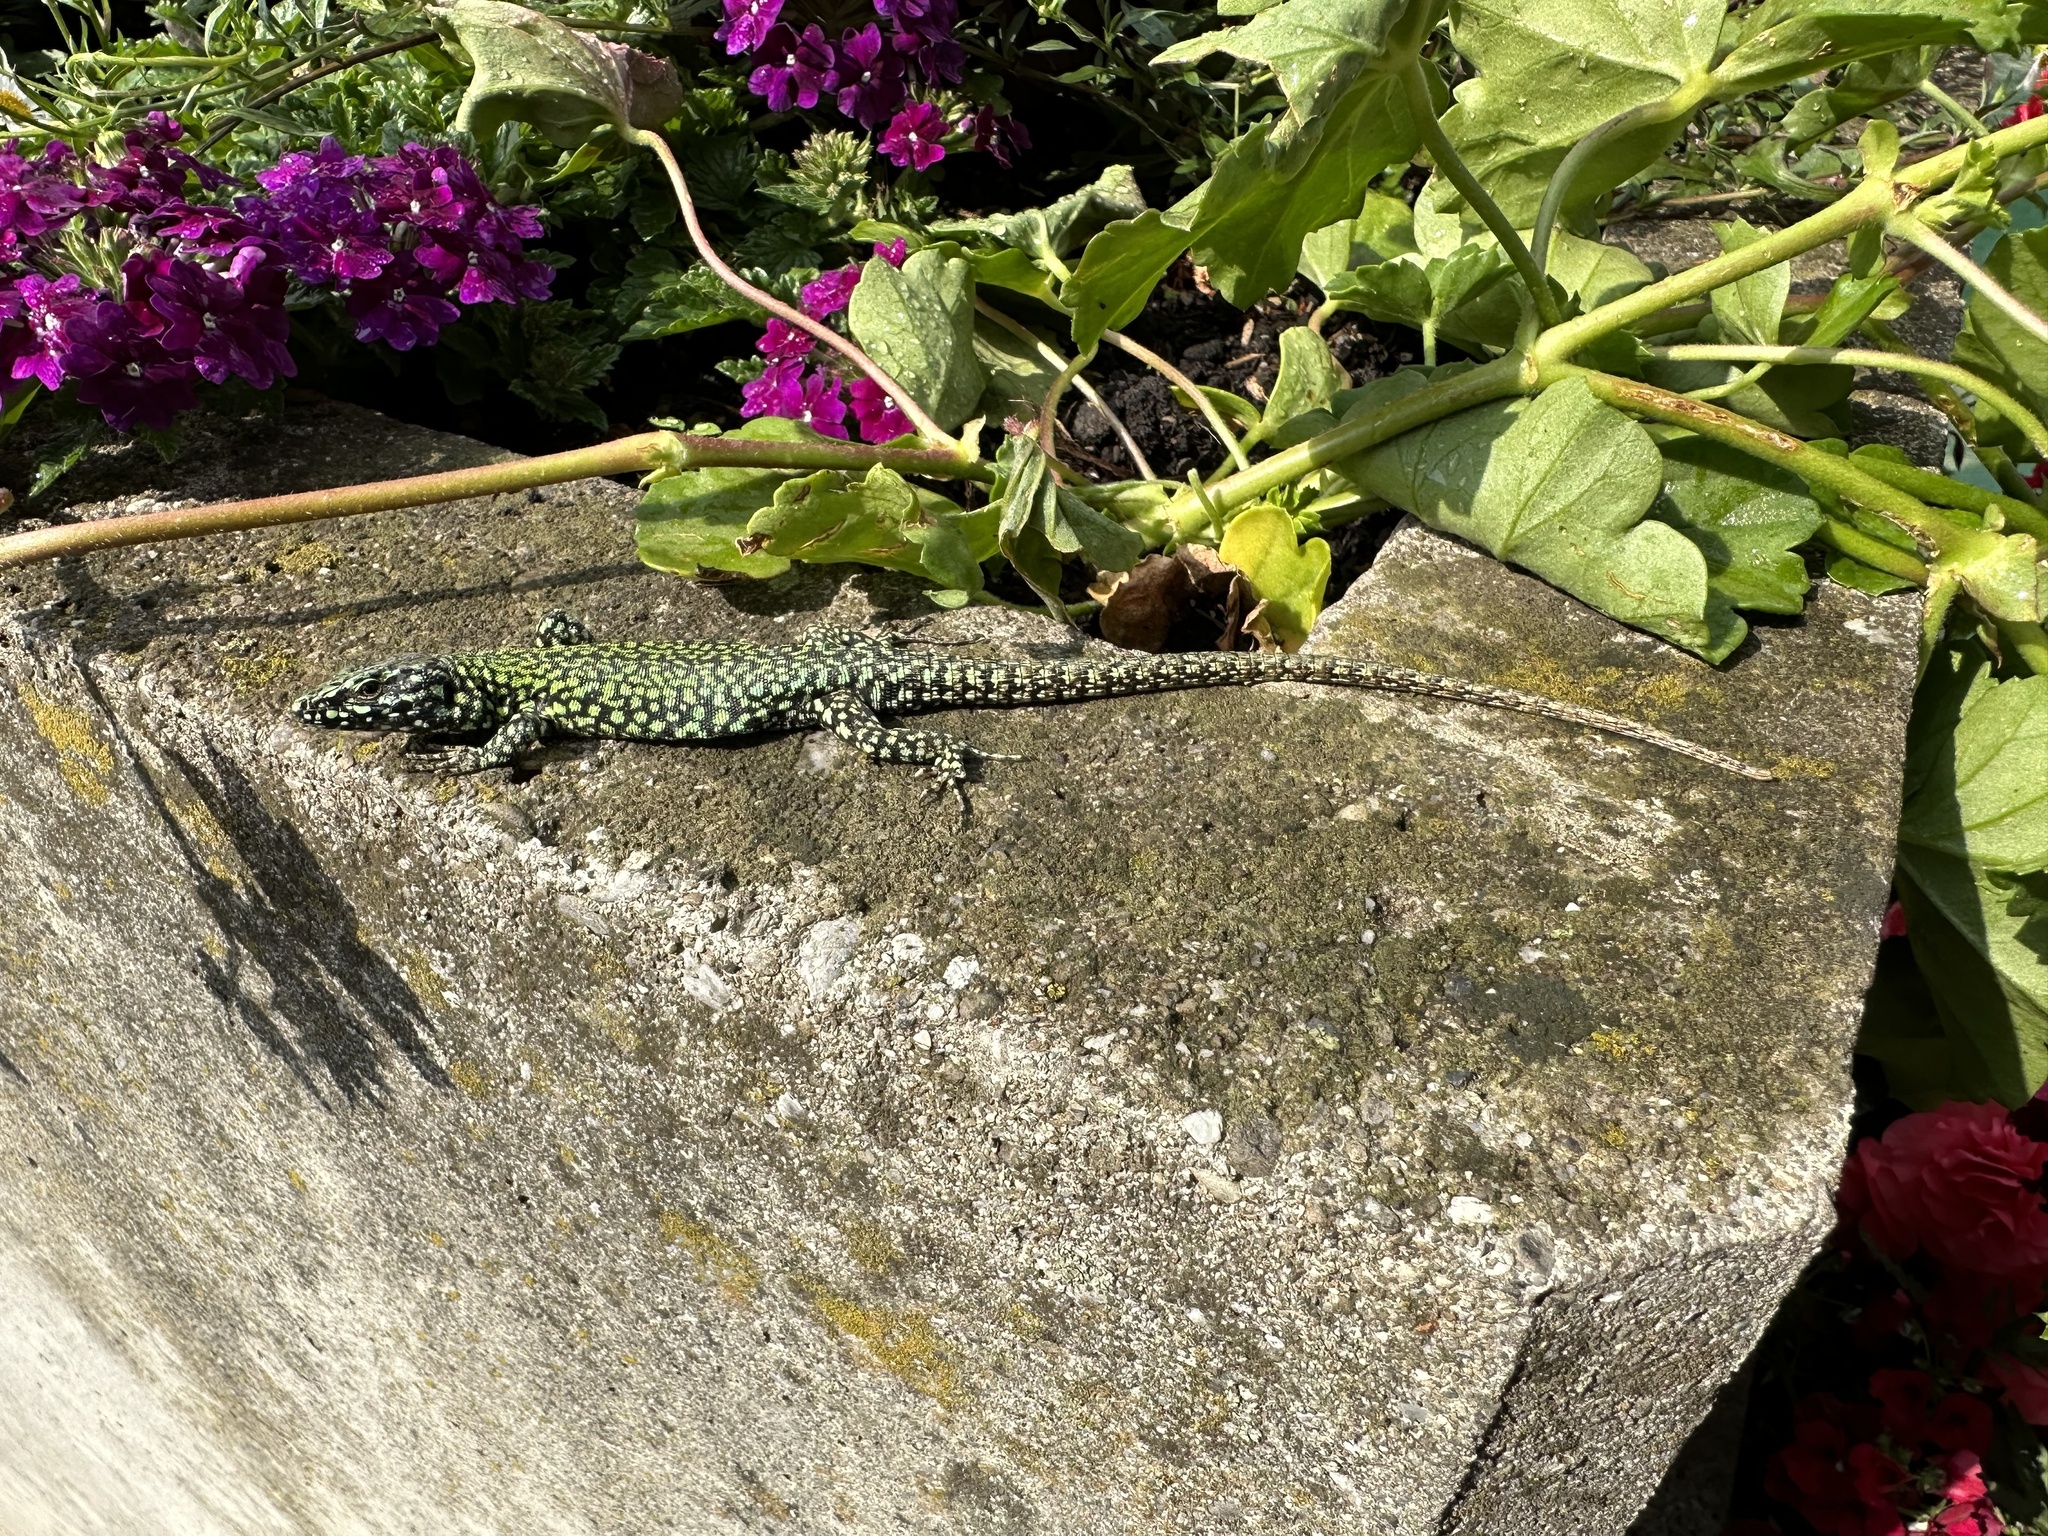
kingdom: Animalia
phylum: Chordata
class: Squamata
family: Lacertidae
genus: Podarcis
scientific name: Podarcis muralis
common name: Common wall lizard
